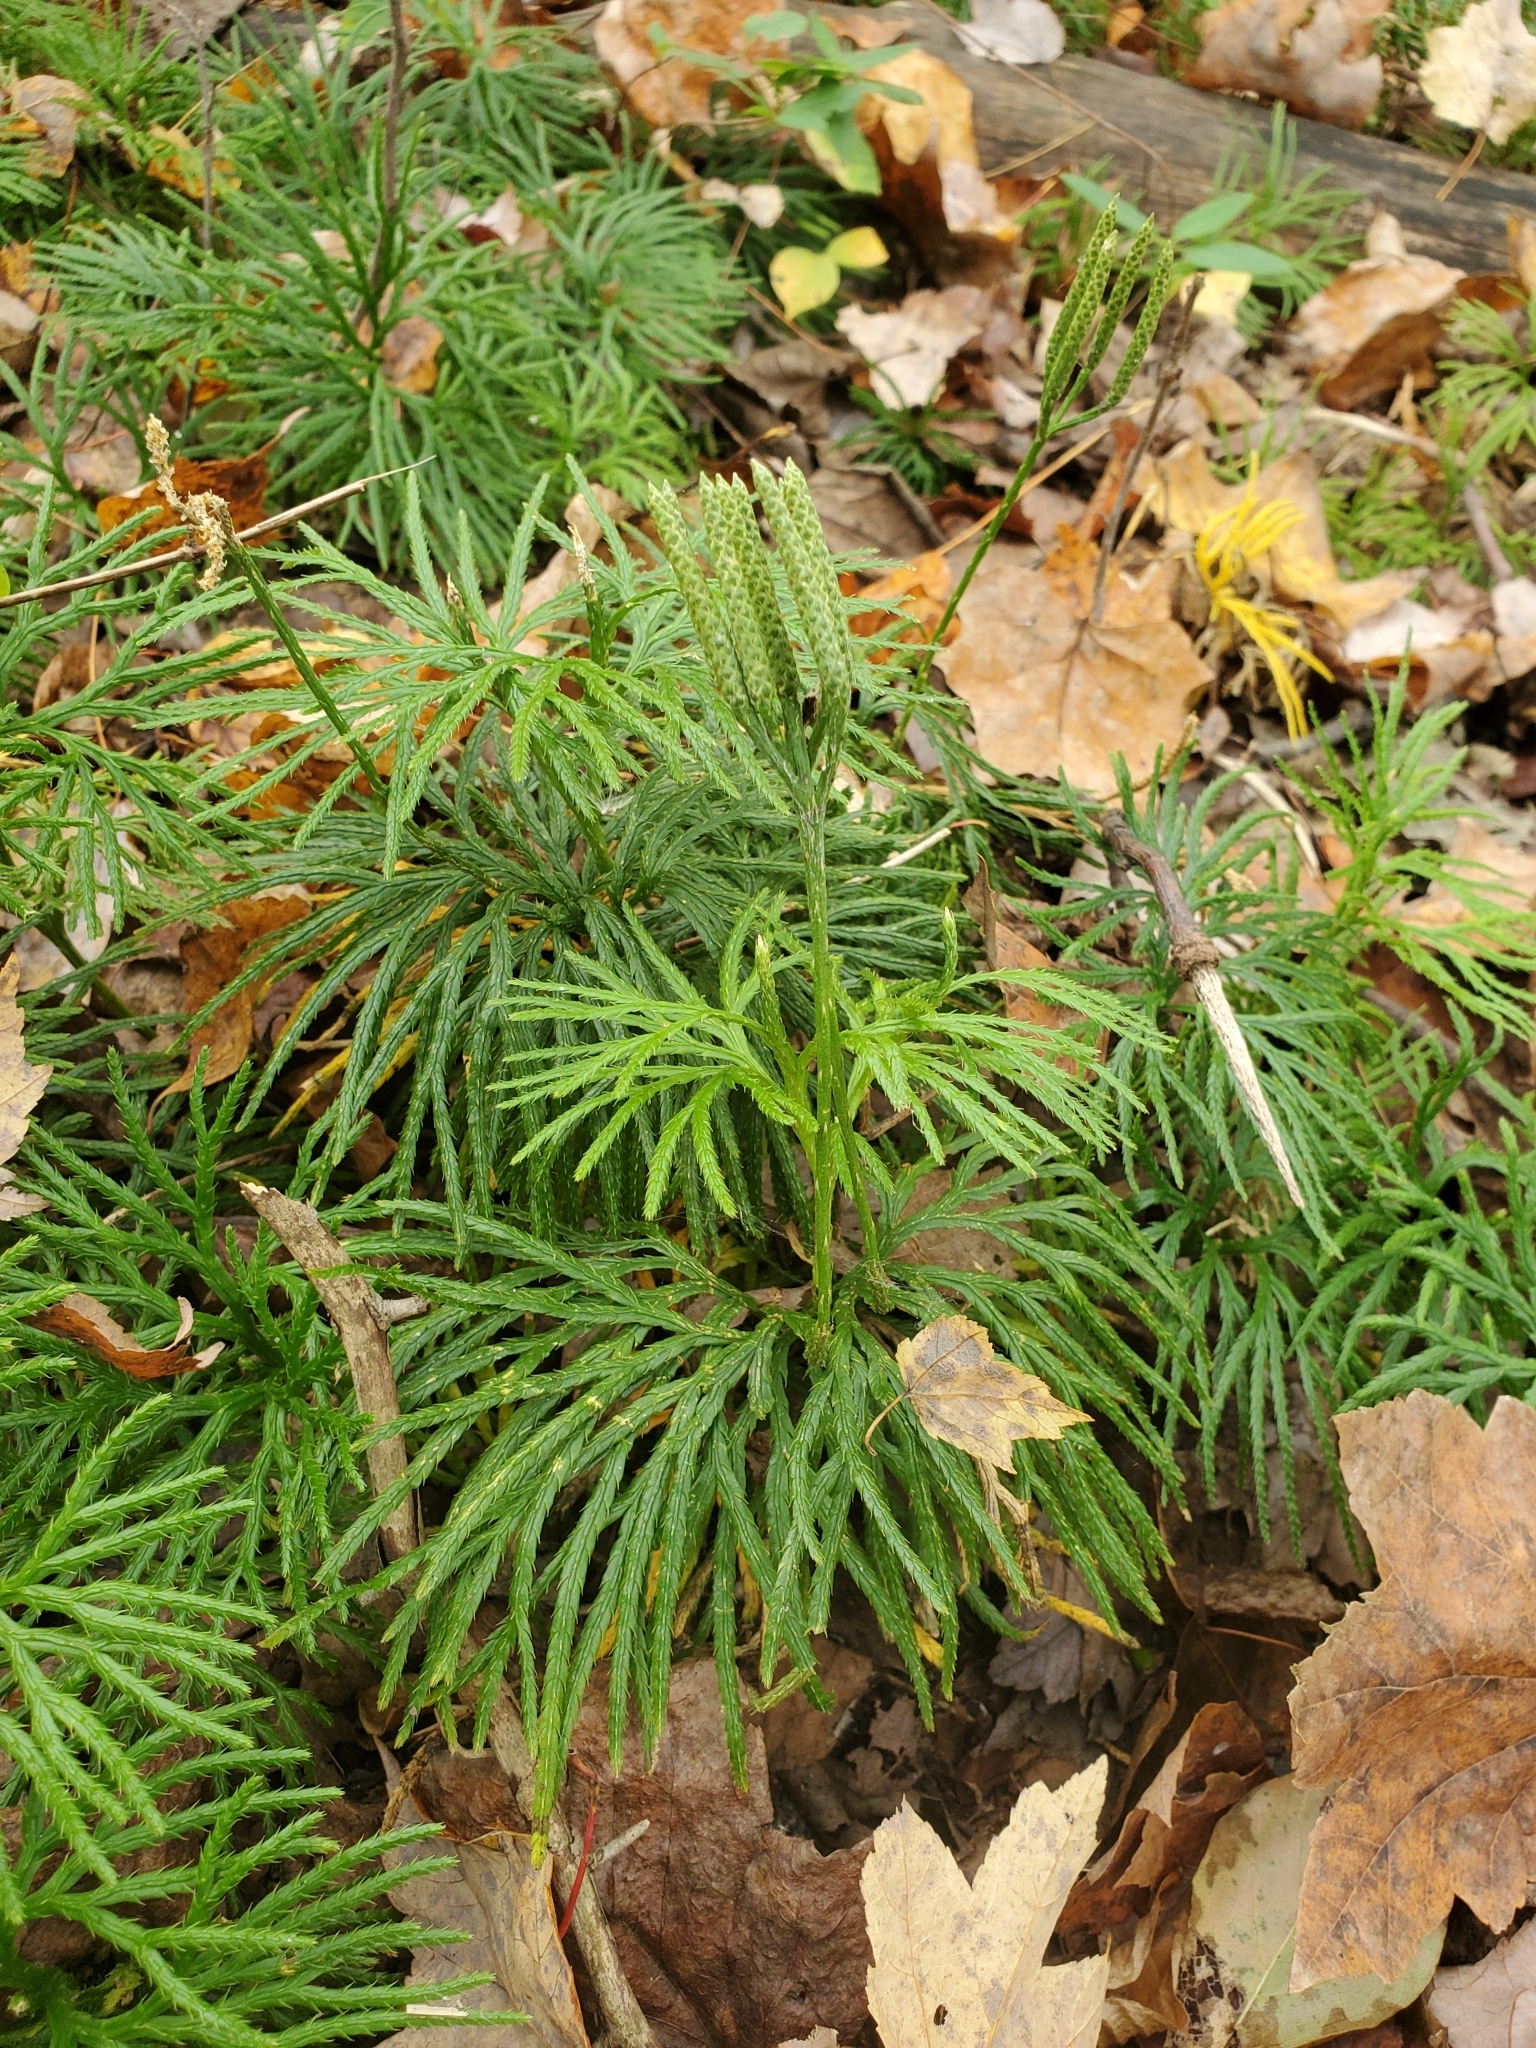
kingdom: Plantae
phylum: Tracheophyta
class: Lycopodiopsida
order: Lycopodiales
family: Lycopodiaceae
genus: Diphasiastrum
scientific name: Diphasiastrum digitatum
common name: Southern running-pine
